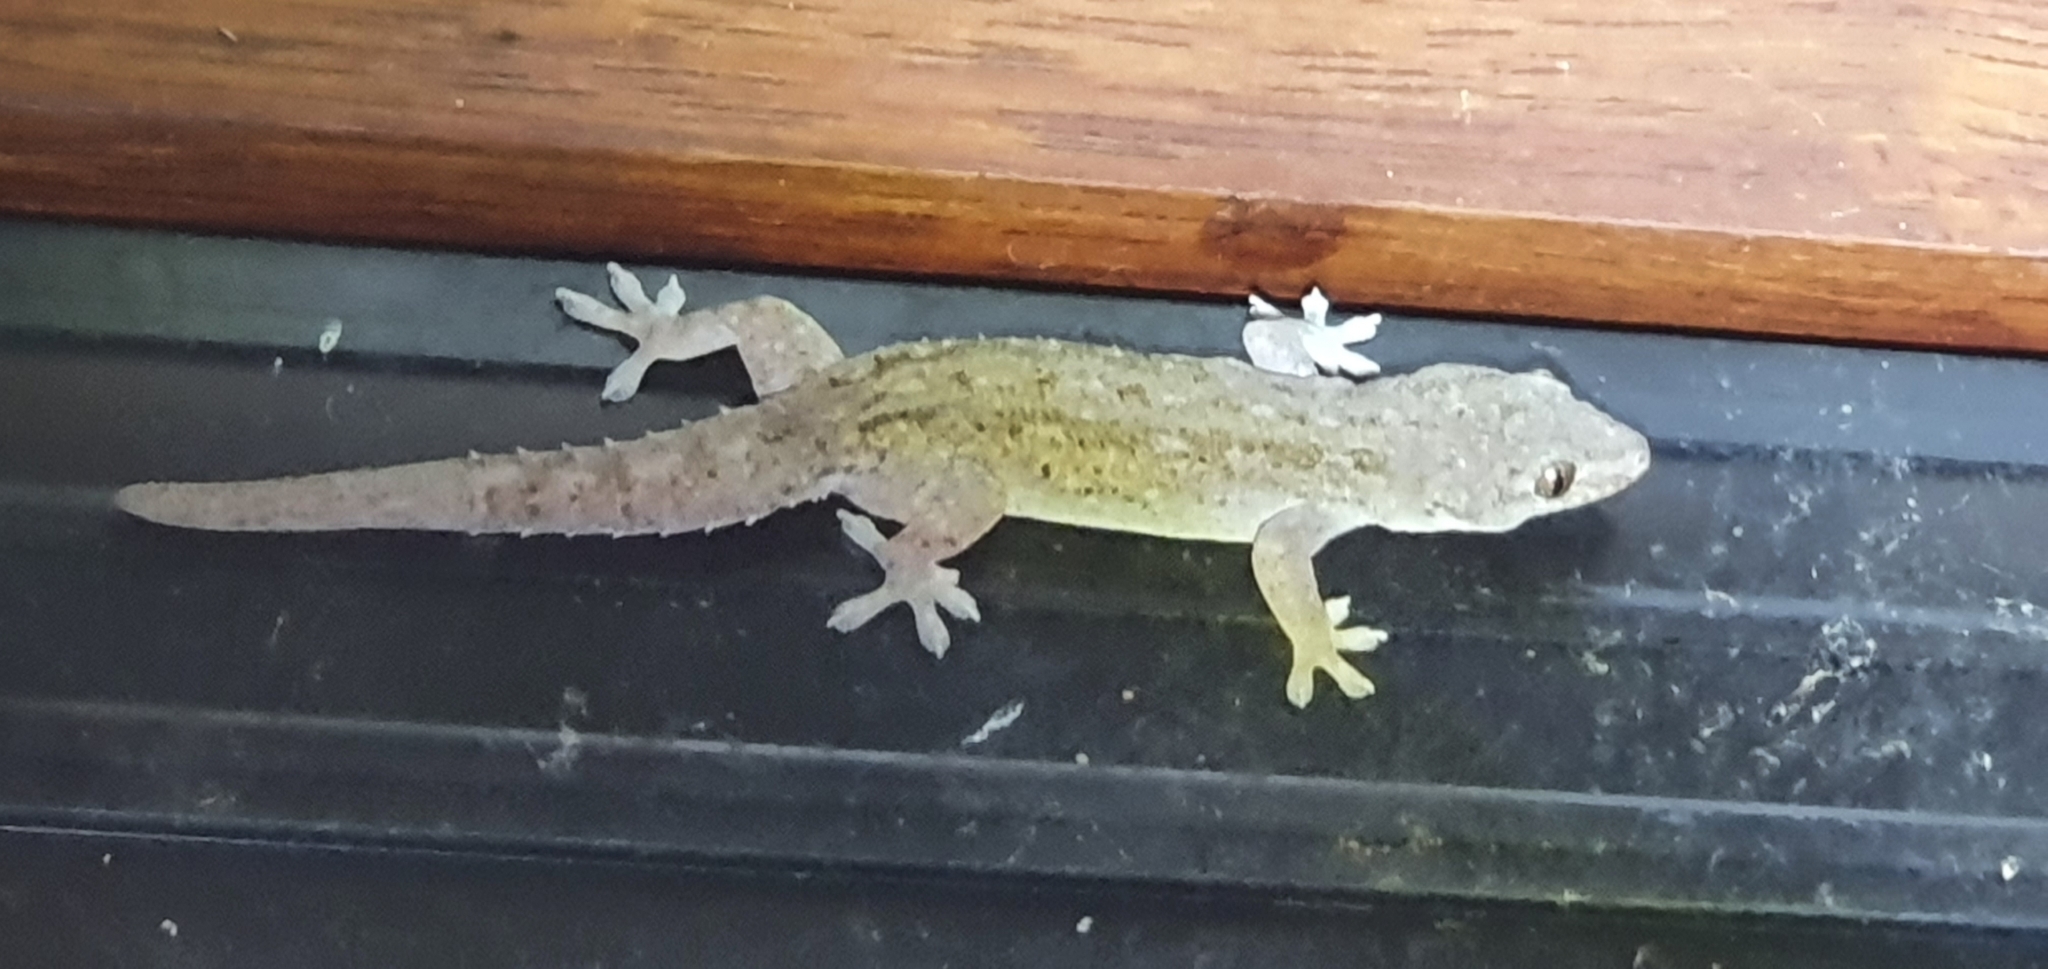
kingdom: Animalia
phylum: Chordata
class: Squamata
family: Gekkonidae
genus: Hemidactylus
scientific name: Hemidactylus frenatus
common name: Common house gecko
